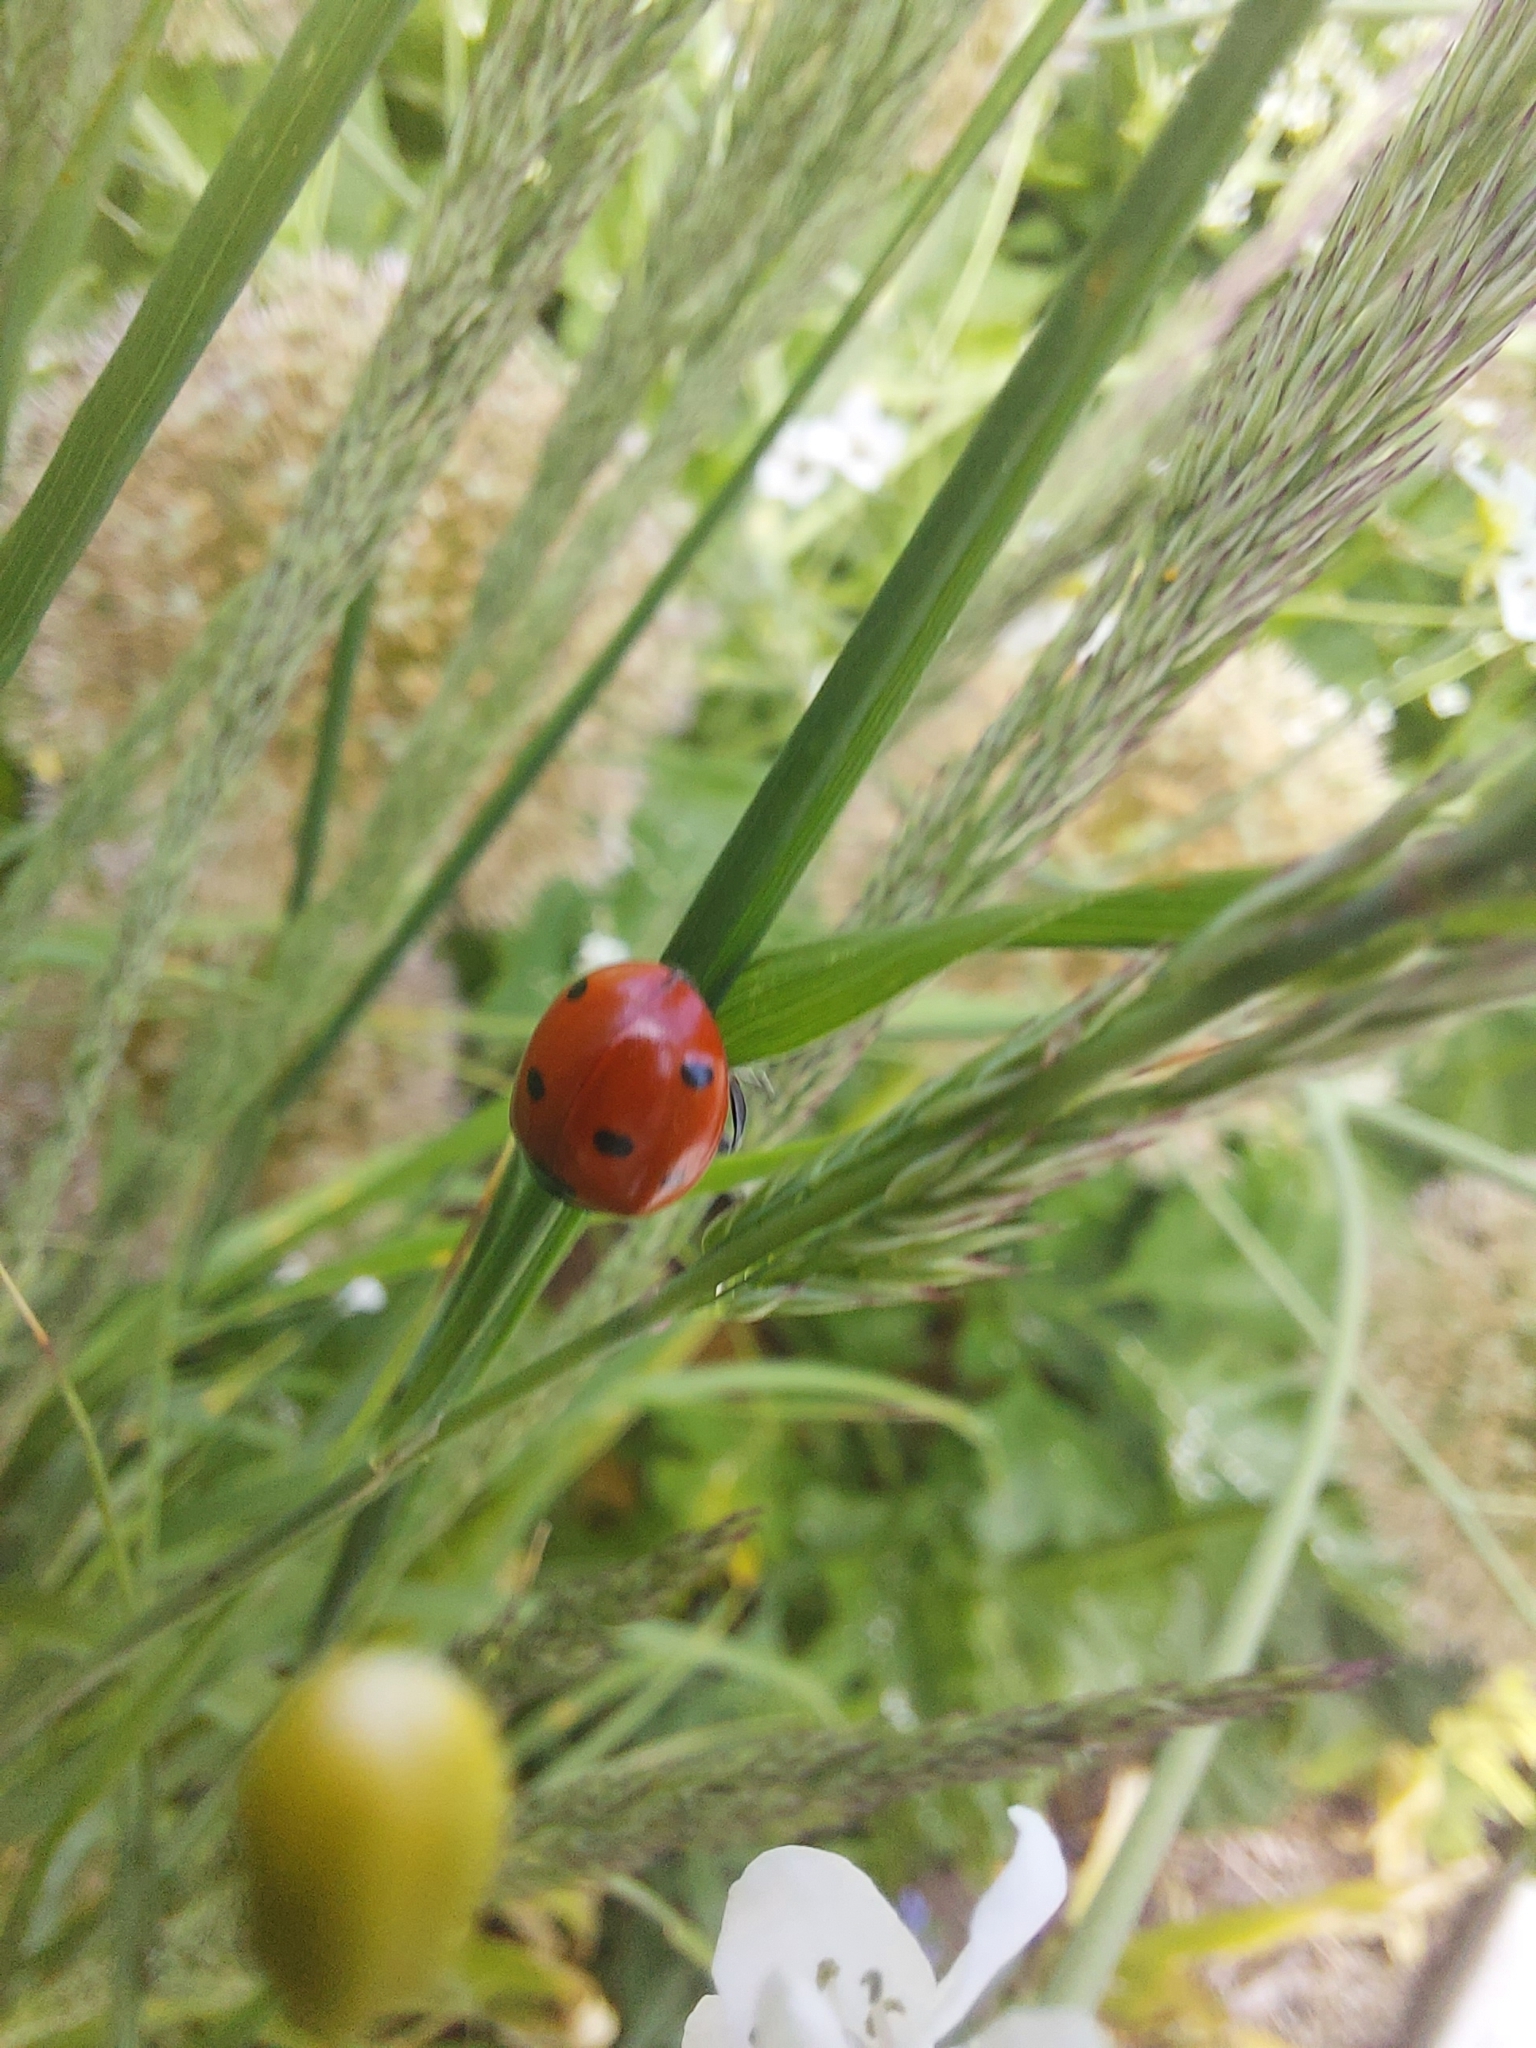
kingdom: Animalia
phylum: Arthropoda
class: Insecta
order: Coleoptera
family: Coccinellidae
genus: Coccinella
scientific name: Coccinella septempunctata
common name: Sevenspotted lady beetle
